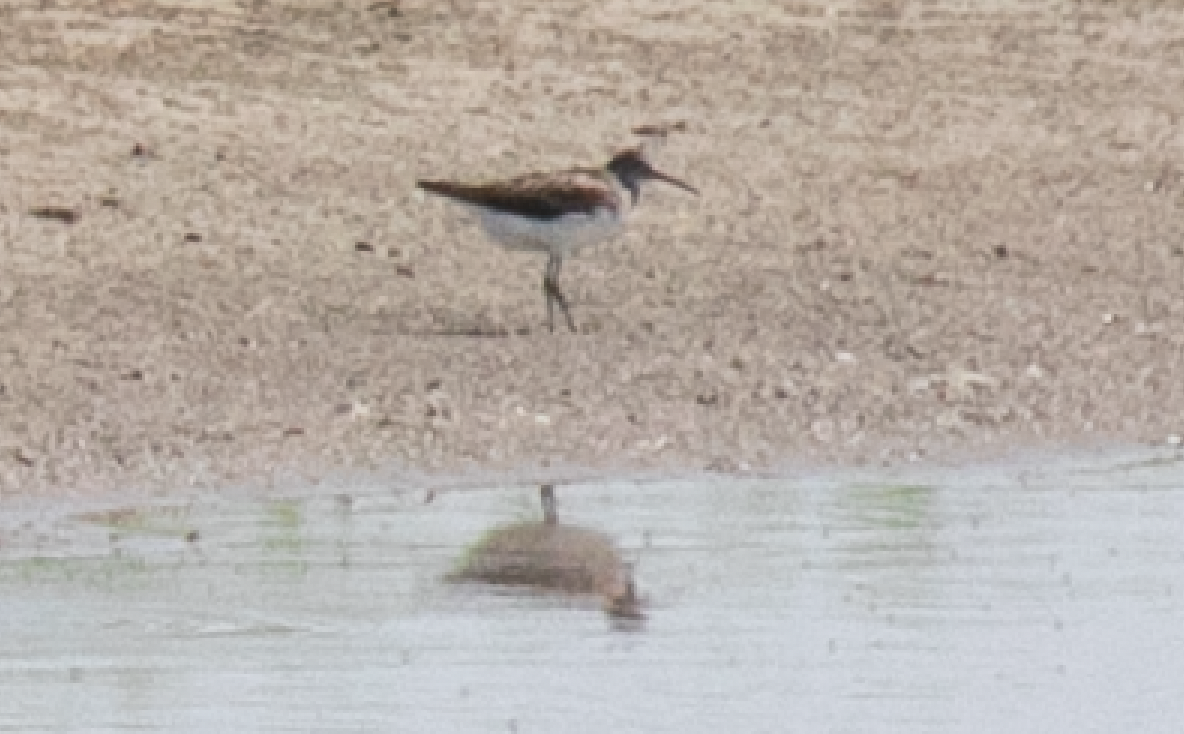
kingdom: Animalia
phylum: Chordata
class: Aves
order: Charadriiformes
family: Scolopacidae
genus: Tringa
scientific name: Tringa ochropus
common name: Green sandpiper
